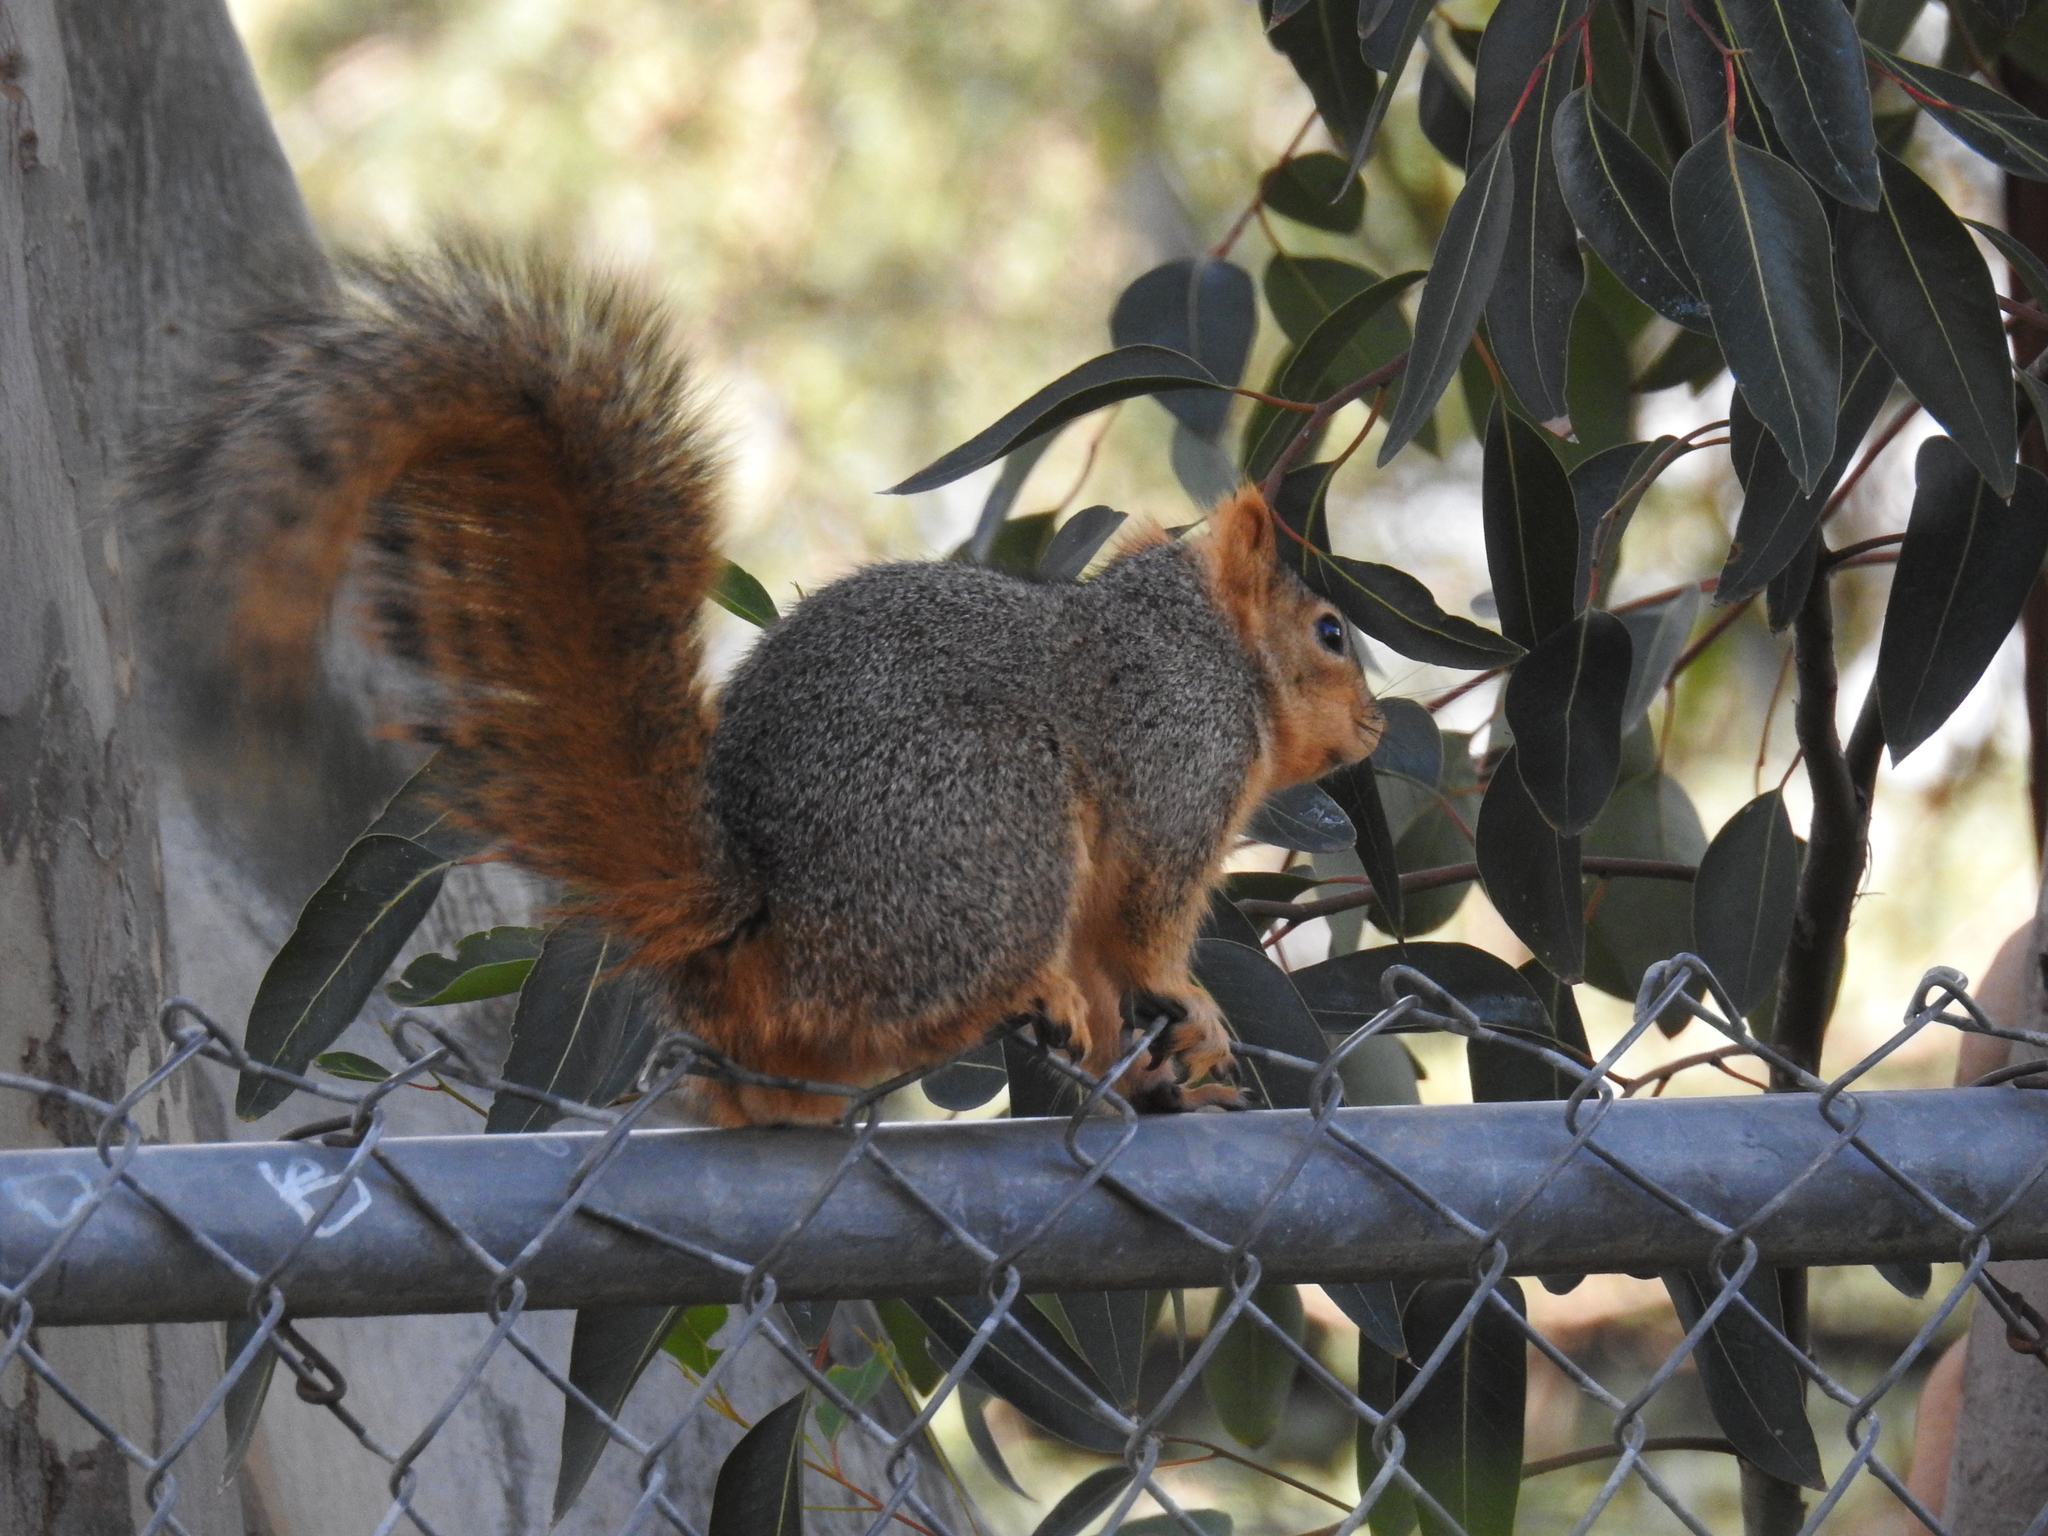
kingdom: Animalia
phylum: Chordata
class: Mammalia
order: Rodentia
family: Sciuridae
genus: Sciurus
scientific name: Sciurus niger
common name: Fox squirrel
